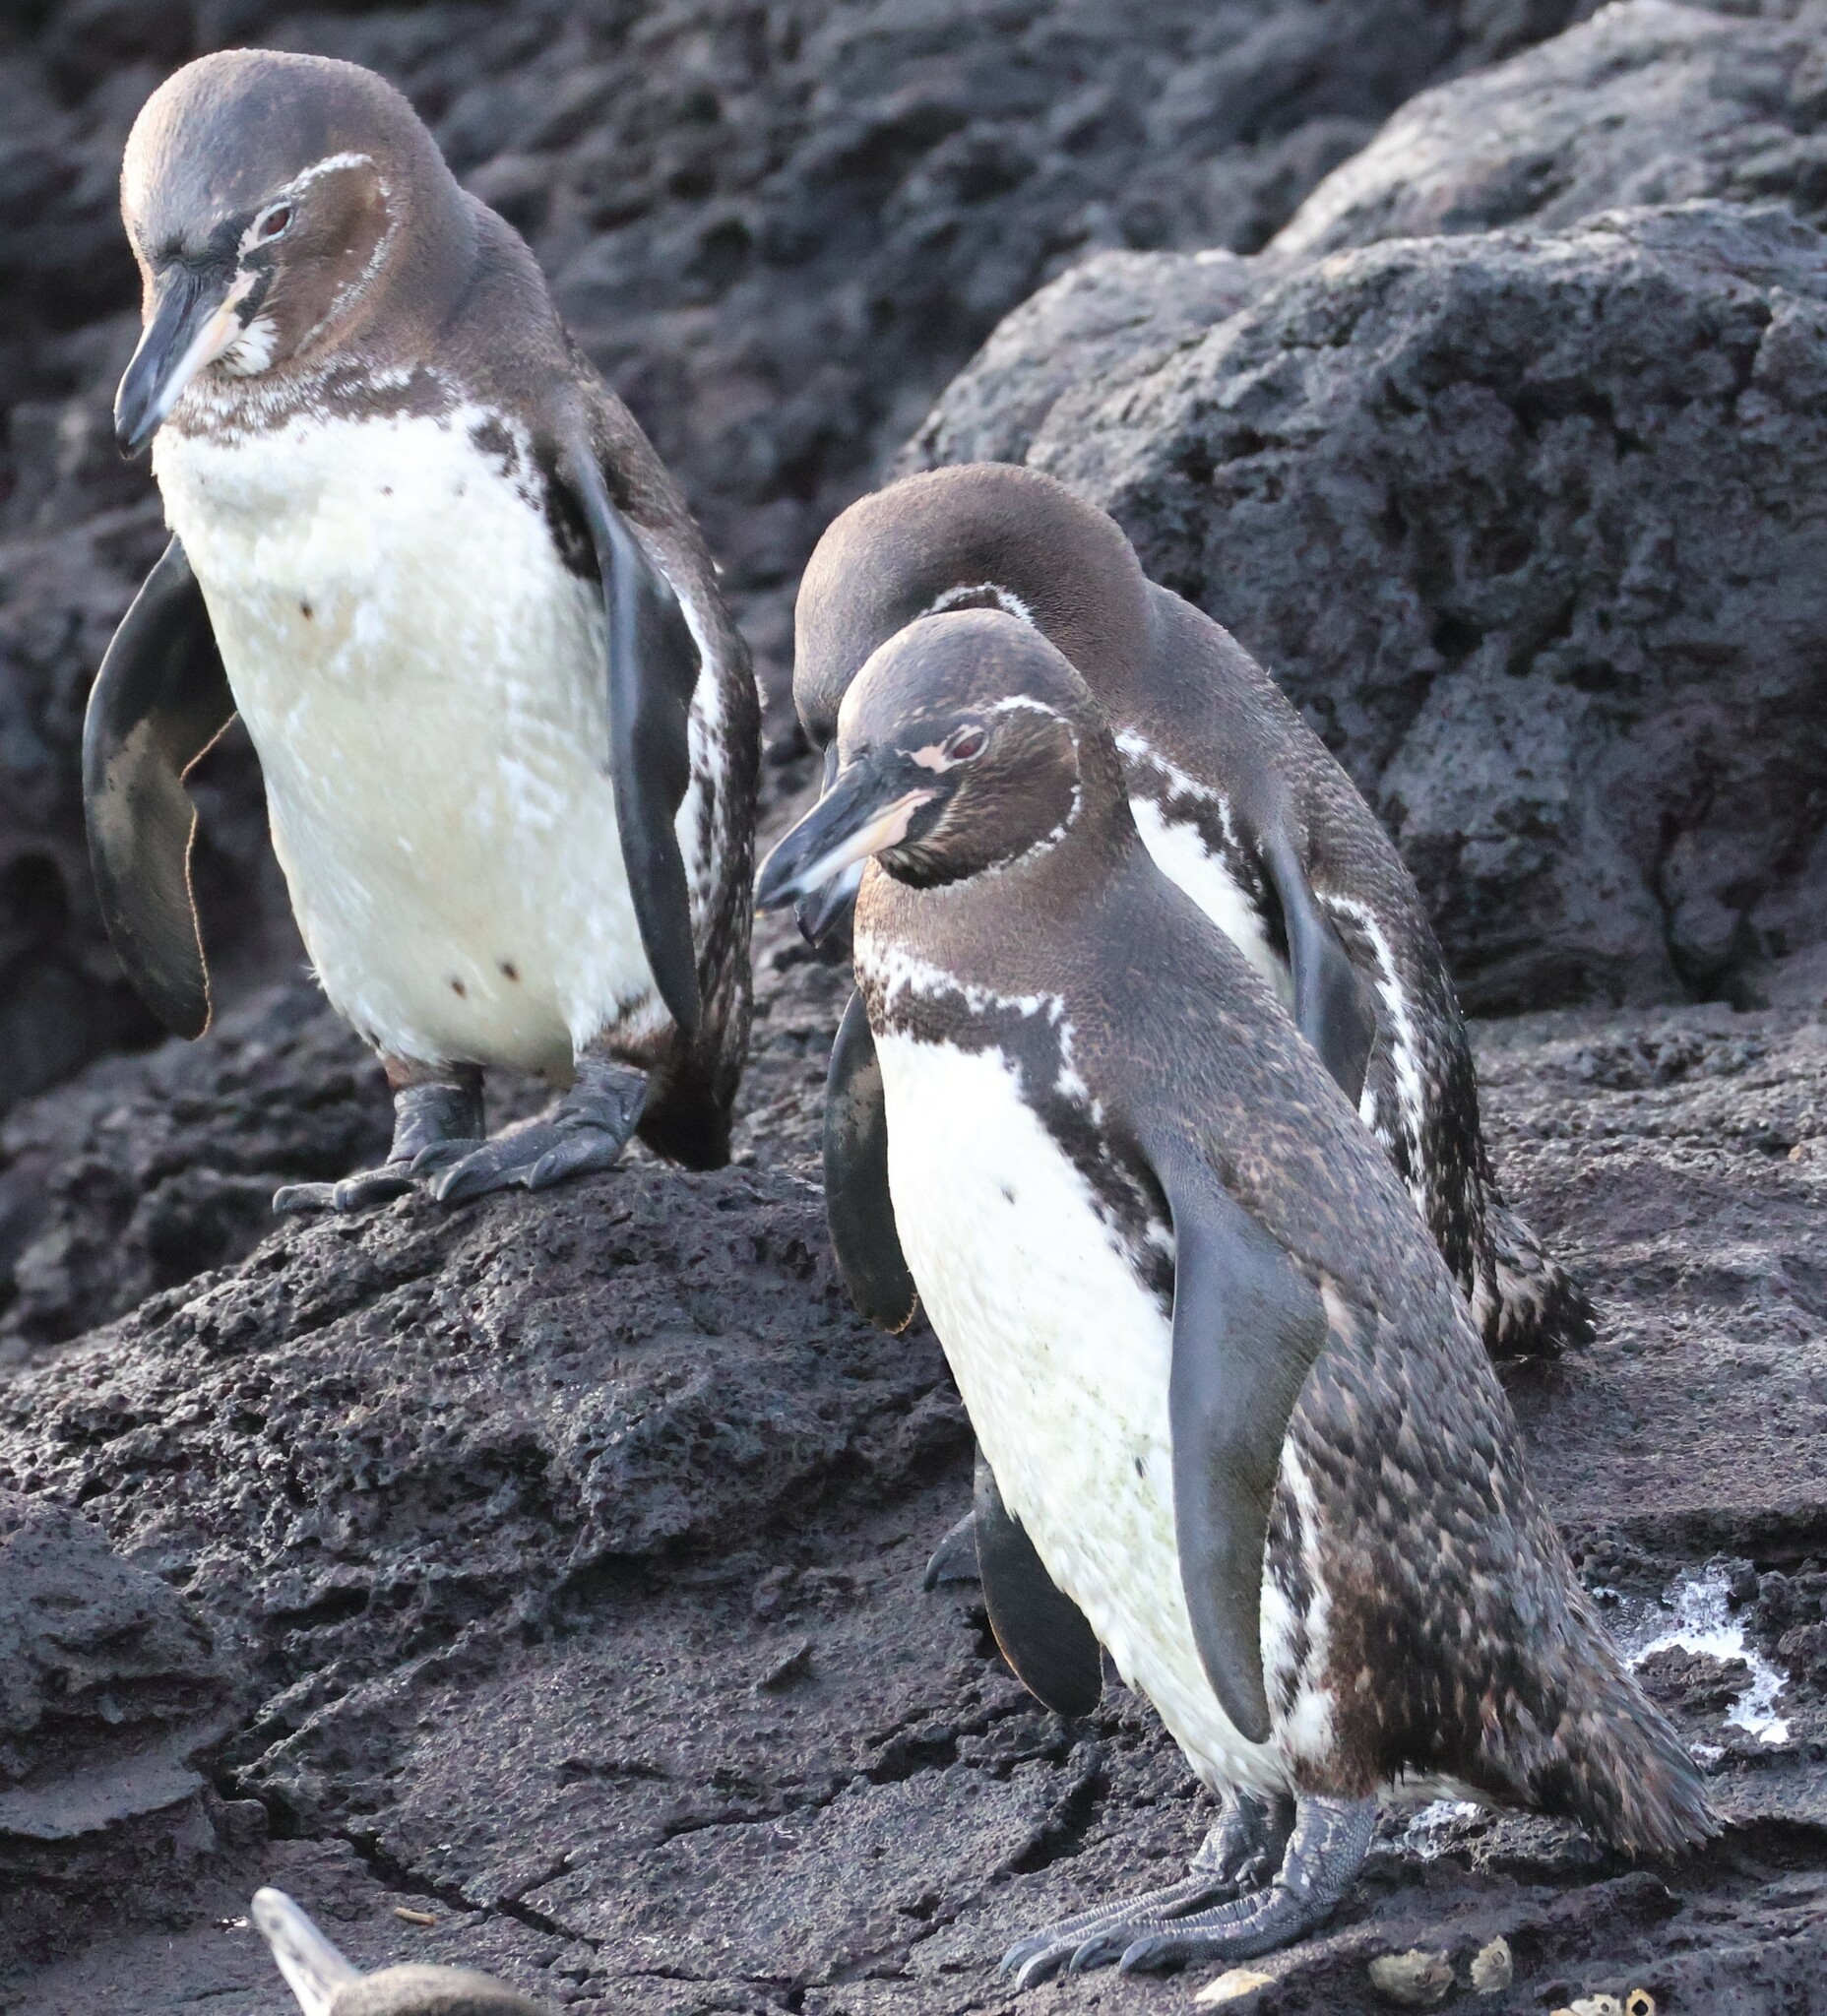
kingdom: Animalia
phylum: Chordata
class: Aves
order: Sphenisciformes
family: Spheniscidae
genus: Spheniscus
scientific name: Spheniscus mendiculus
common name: Galapagos penguin
